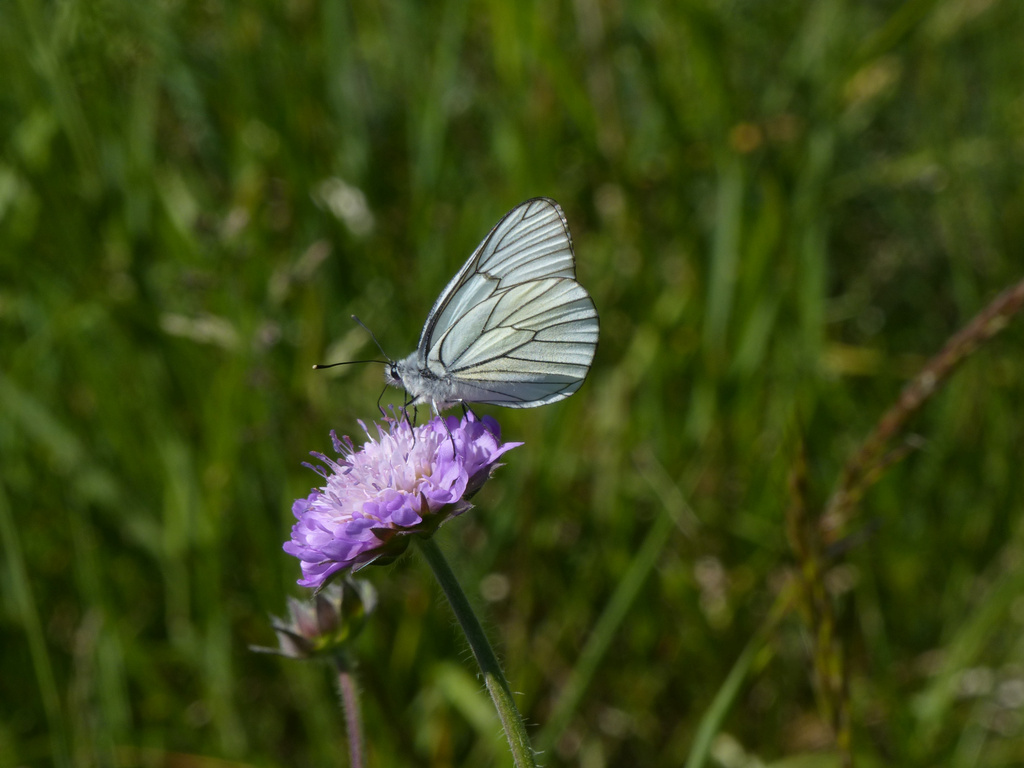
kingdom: Animalia
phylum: Arthropoda
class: Insecta
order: Lepidoptera
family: Pieridae
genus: Aporia
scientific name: Aporia crataegi
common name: Black-veined white
